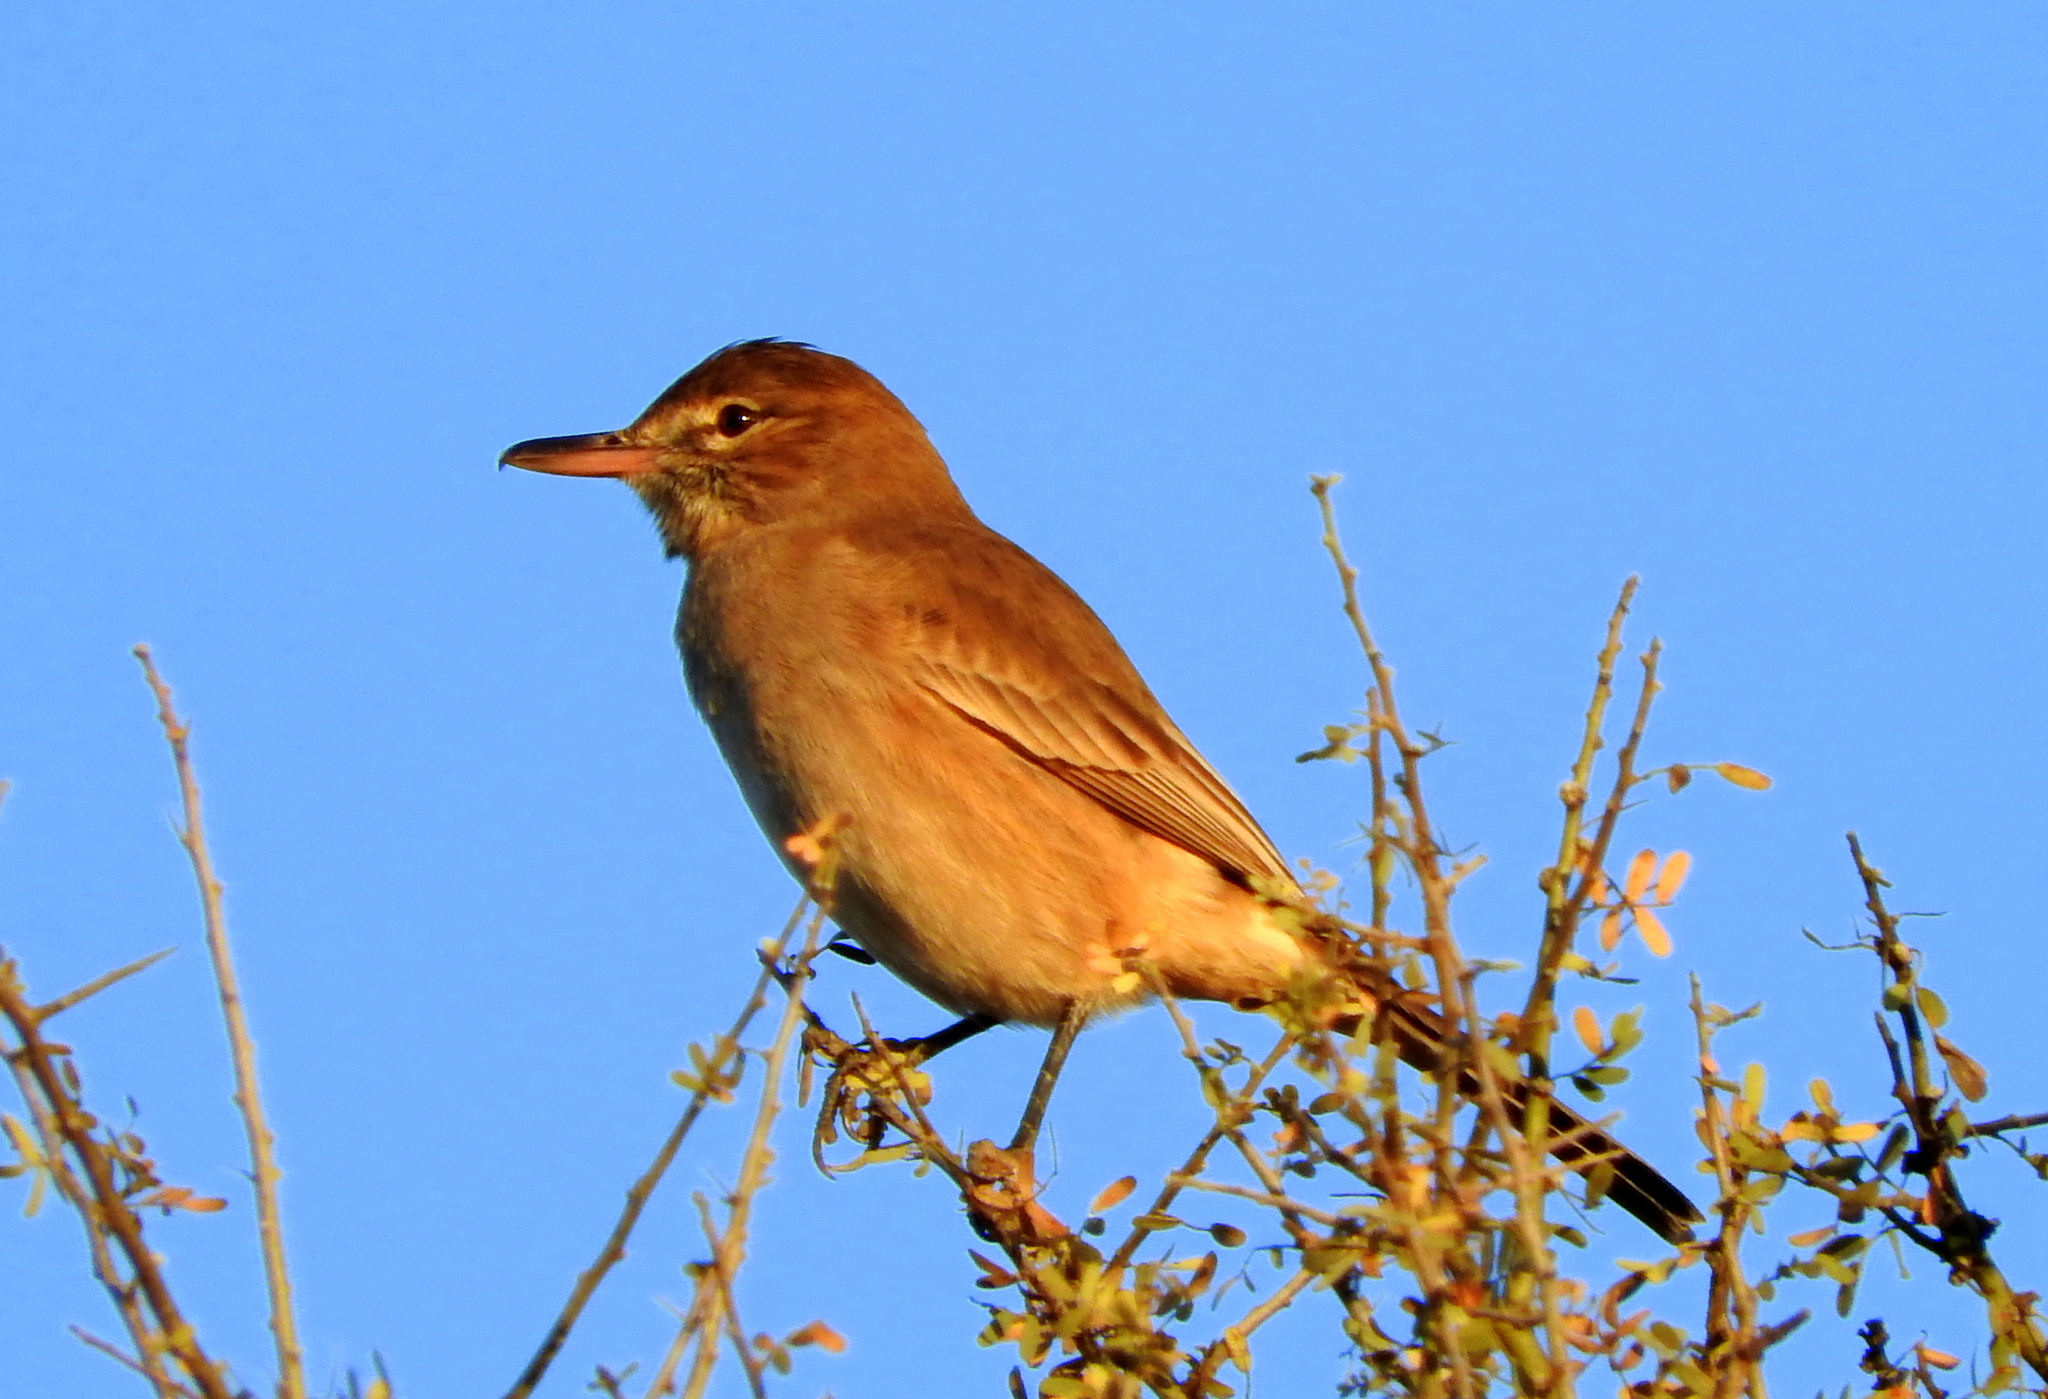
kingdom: Animalia
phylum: Chordata
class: Aves
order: Passeriformes
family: Tyrannidae
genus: Agriornis
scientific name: Agriornis micropterus
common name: Grey-bellied shrike-tyrant
